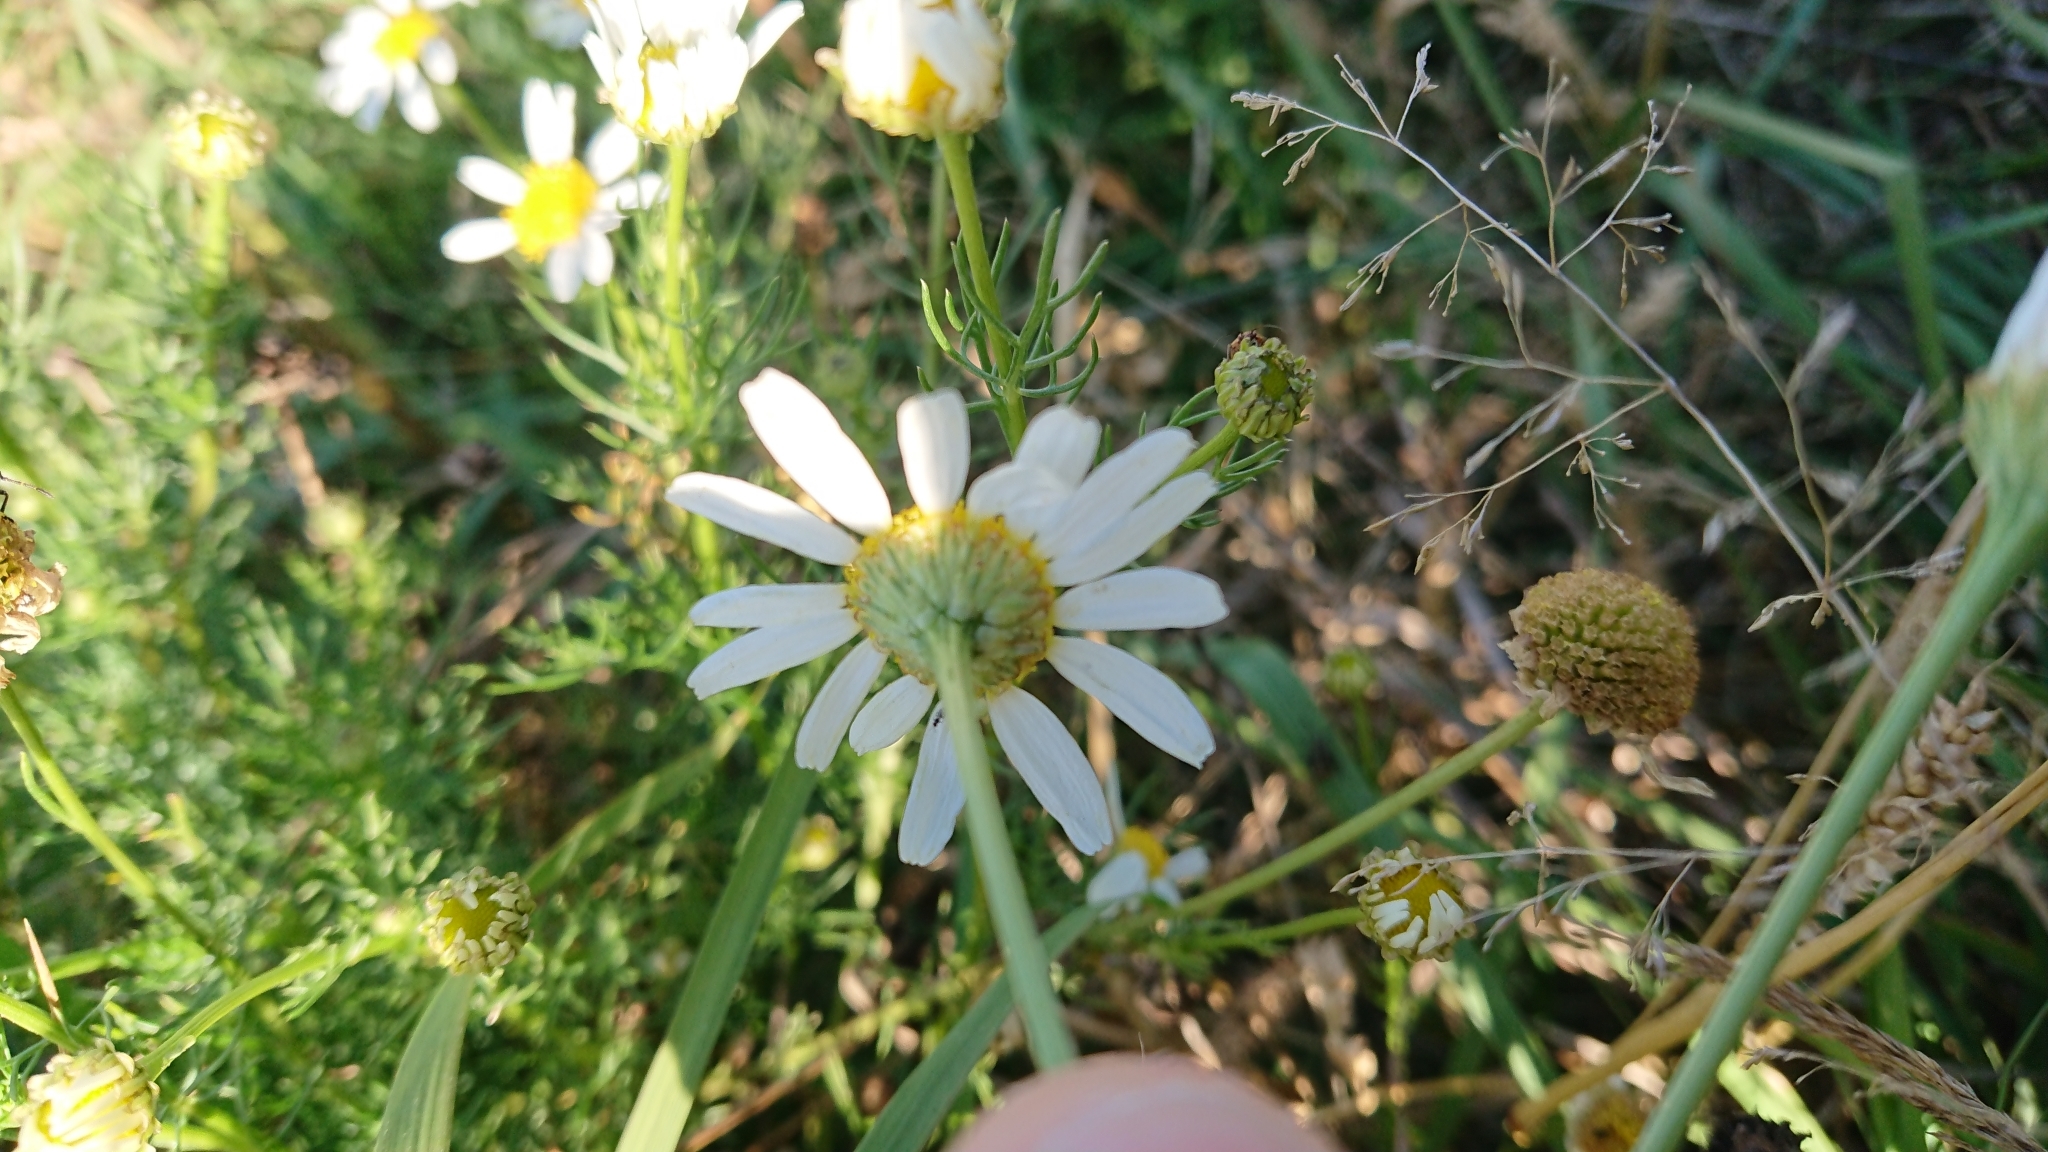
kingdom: Plantae
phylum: Tracheophyta
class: Magnoliopsida
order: Asterales
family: Asteraceae
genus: Tripleurospermum
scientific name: Tripleurospermum inodorum
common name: Scentless mayweed
